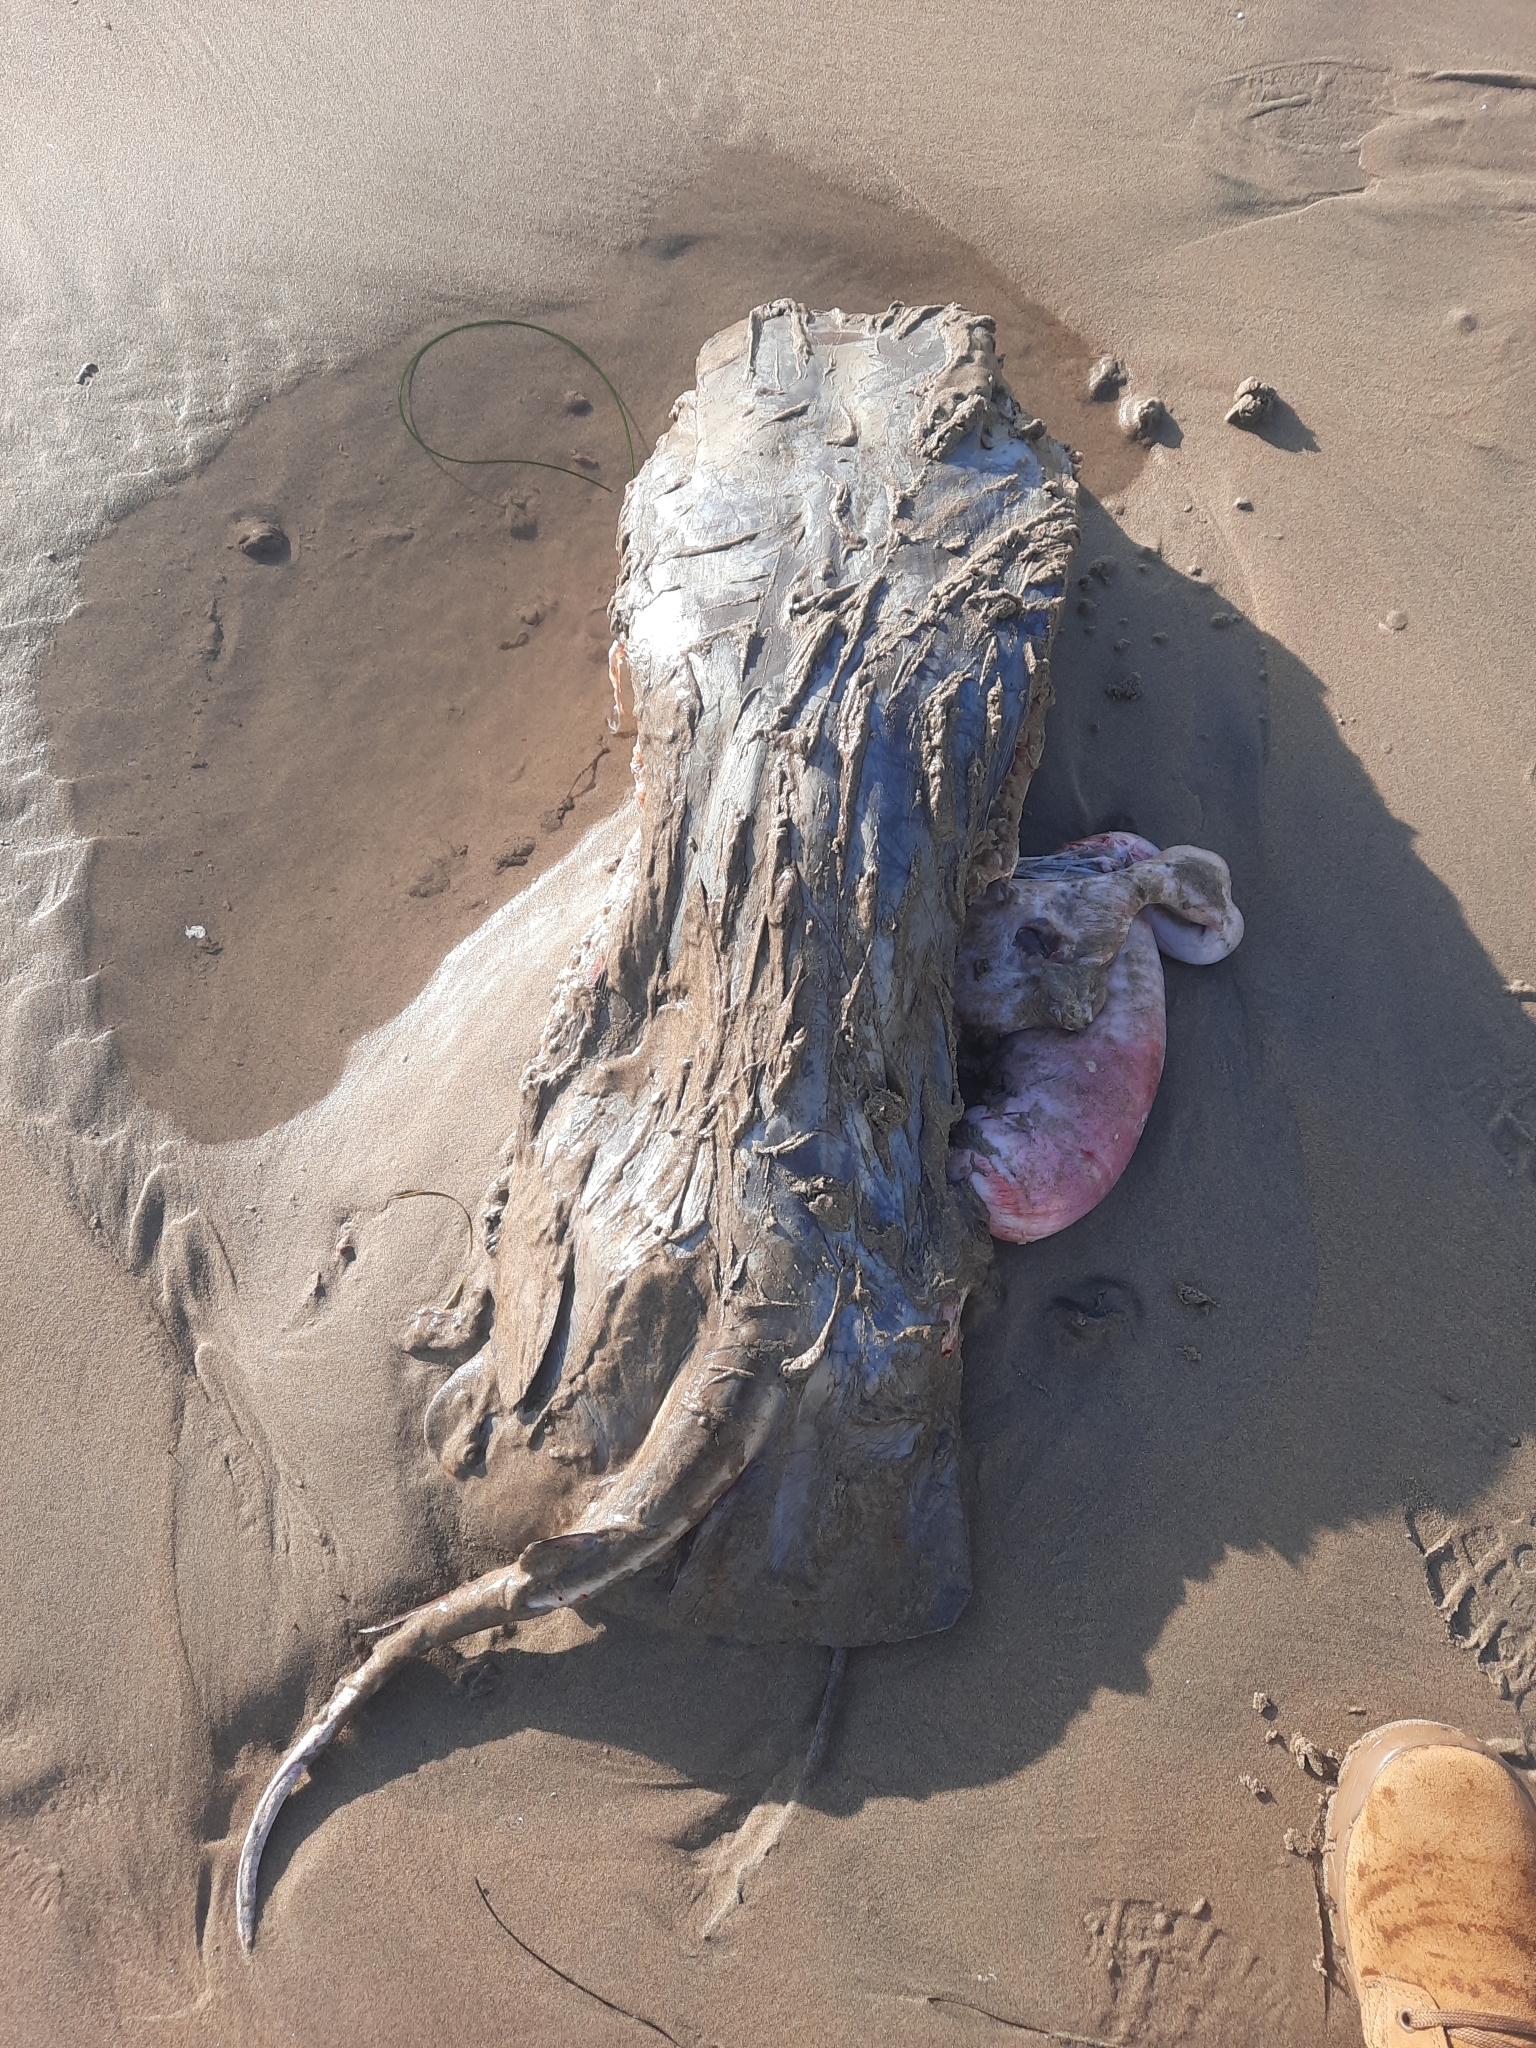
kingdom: Animalia
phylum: Chordata
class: Elasmobranchii
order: Myliobatiformes
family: Myliobatidae
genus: Myliobatis
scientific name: Myliobatis californica
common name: Bat ray
